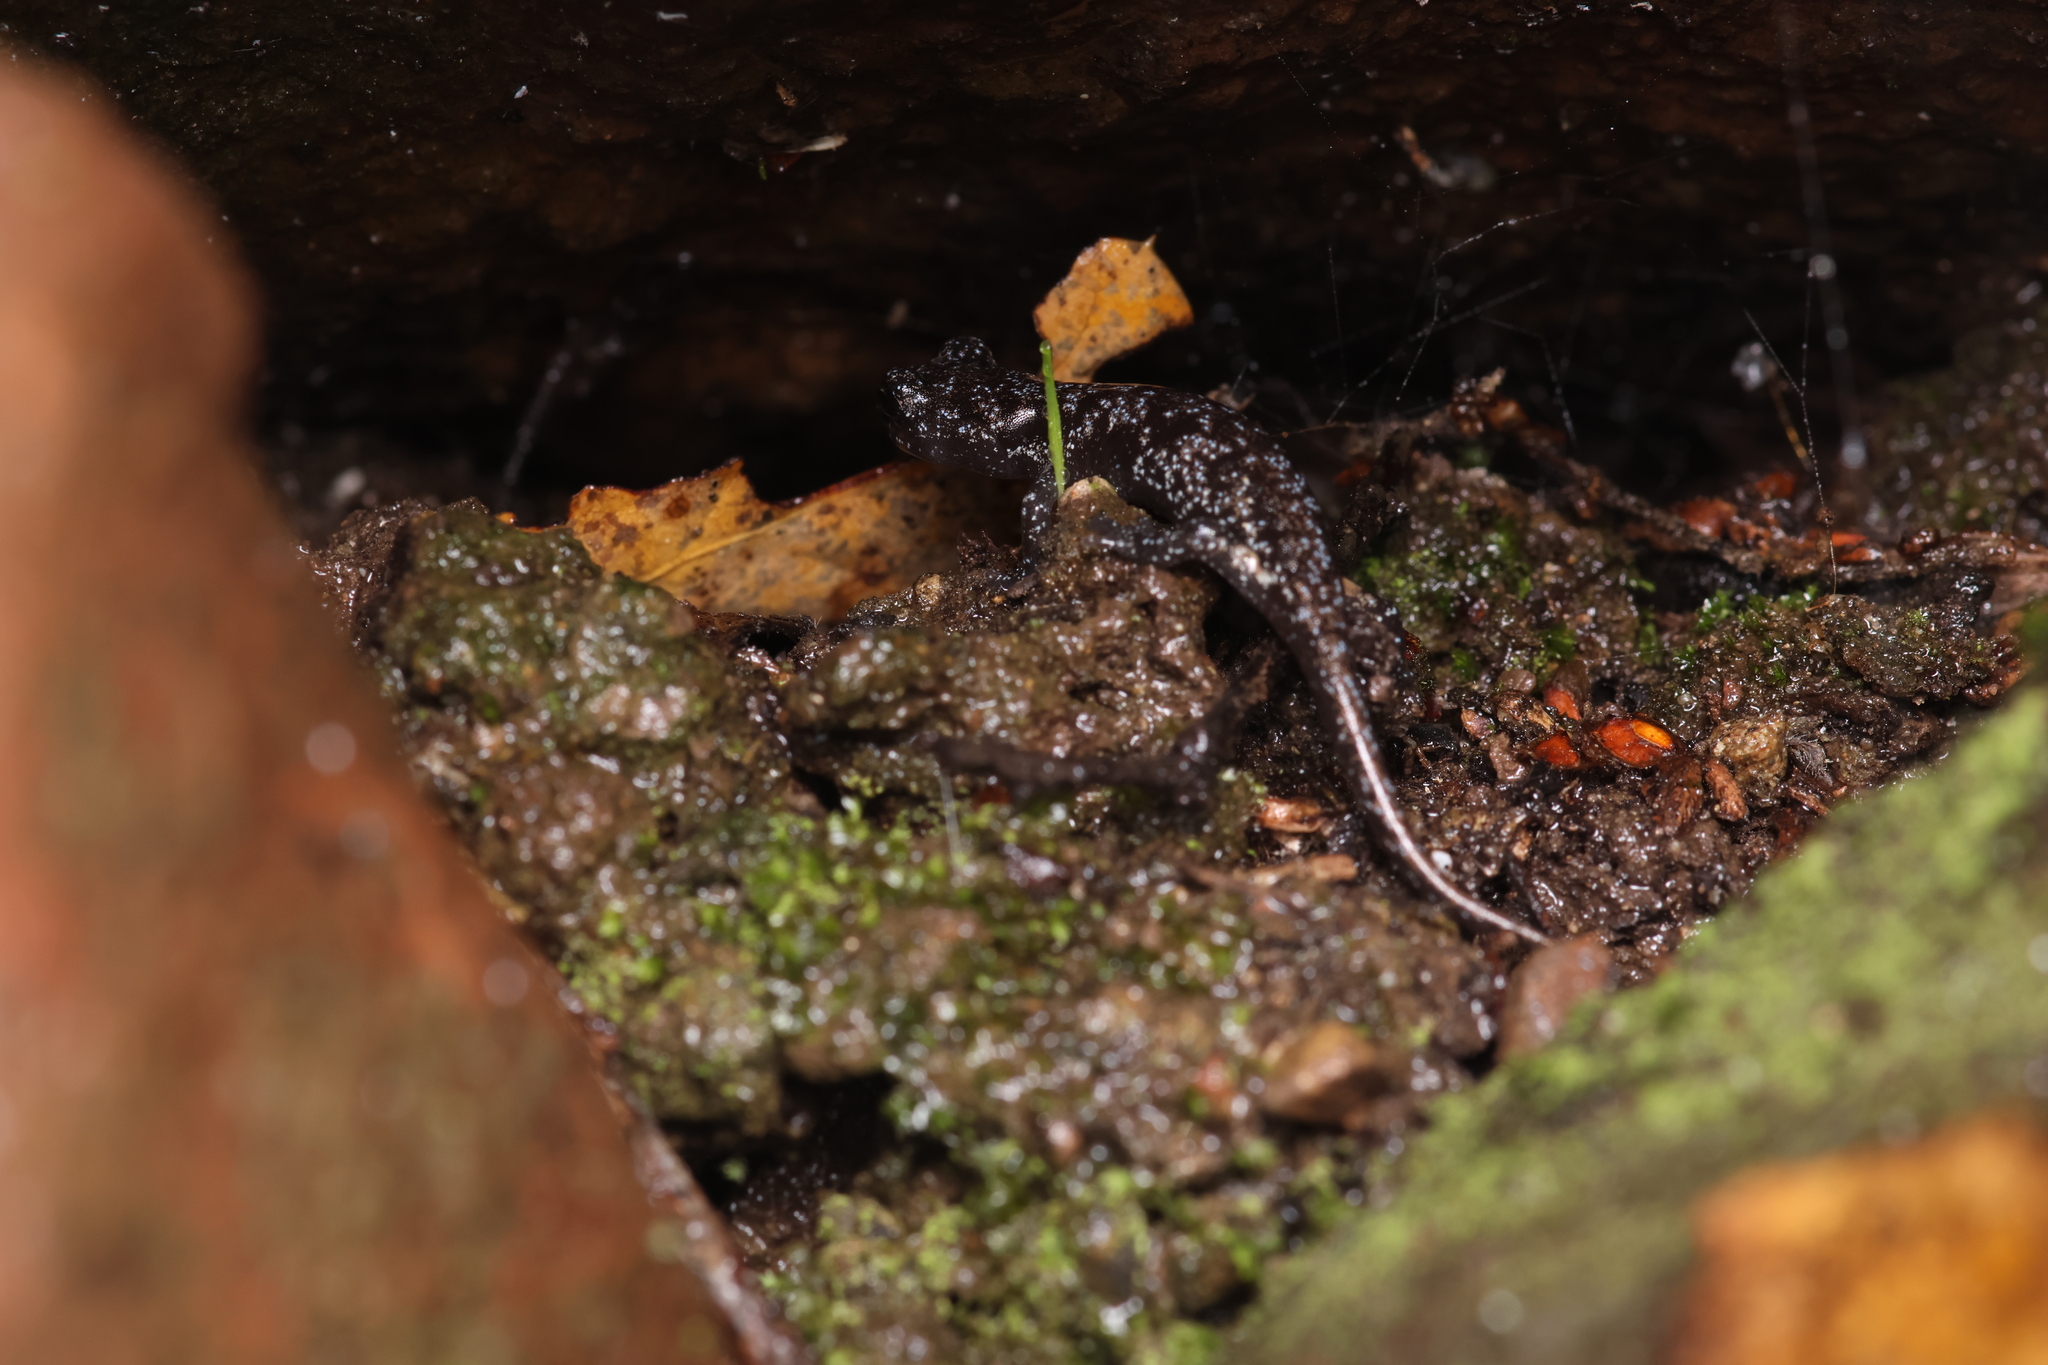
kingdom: Animalia
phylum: Chordata
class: Amphibia
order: Caudata
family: Plethodontidae
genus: Aneides
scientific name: Aneides lugubris
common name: Arboreal salamander
